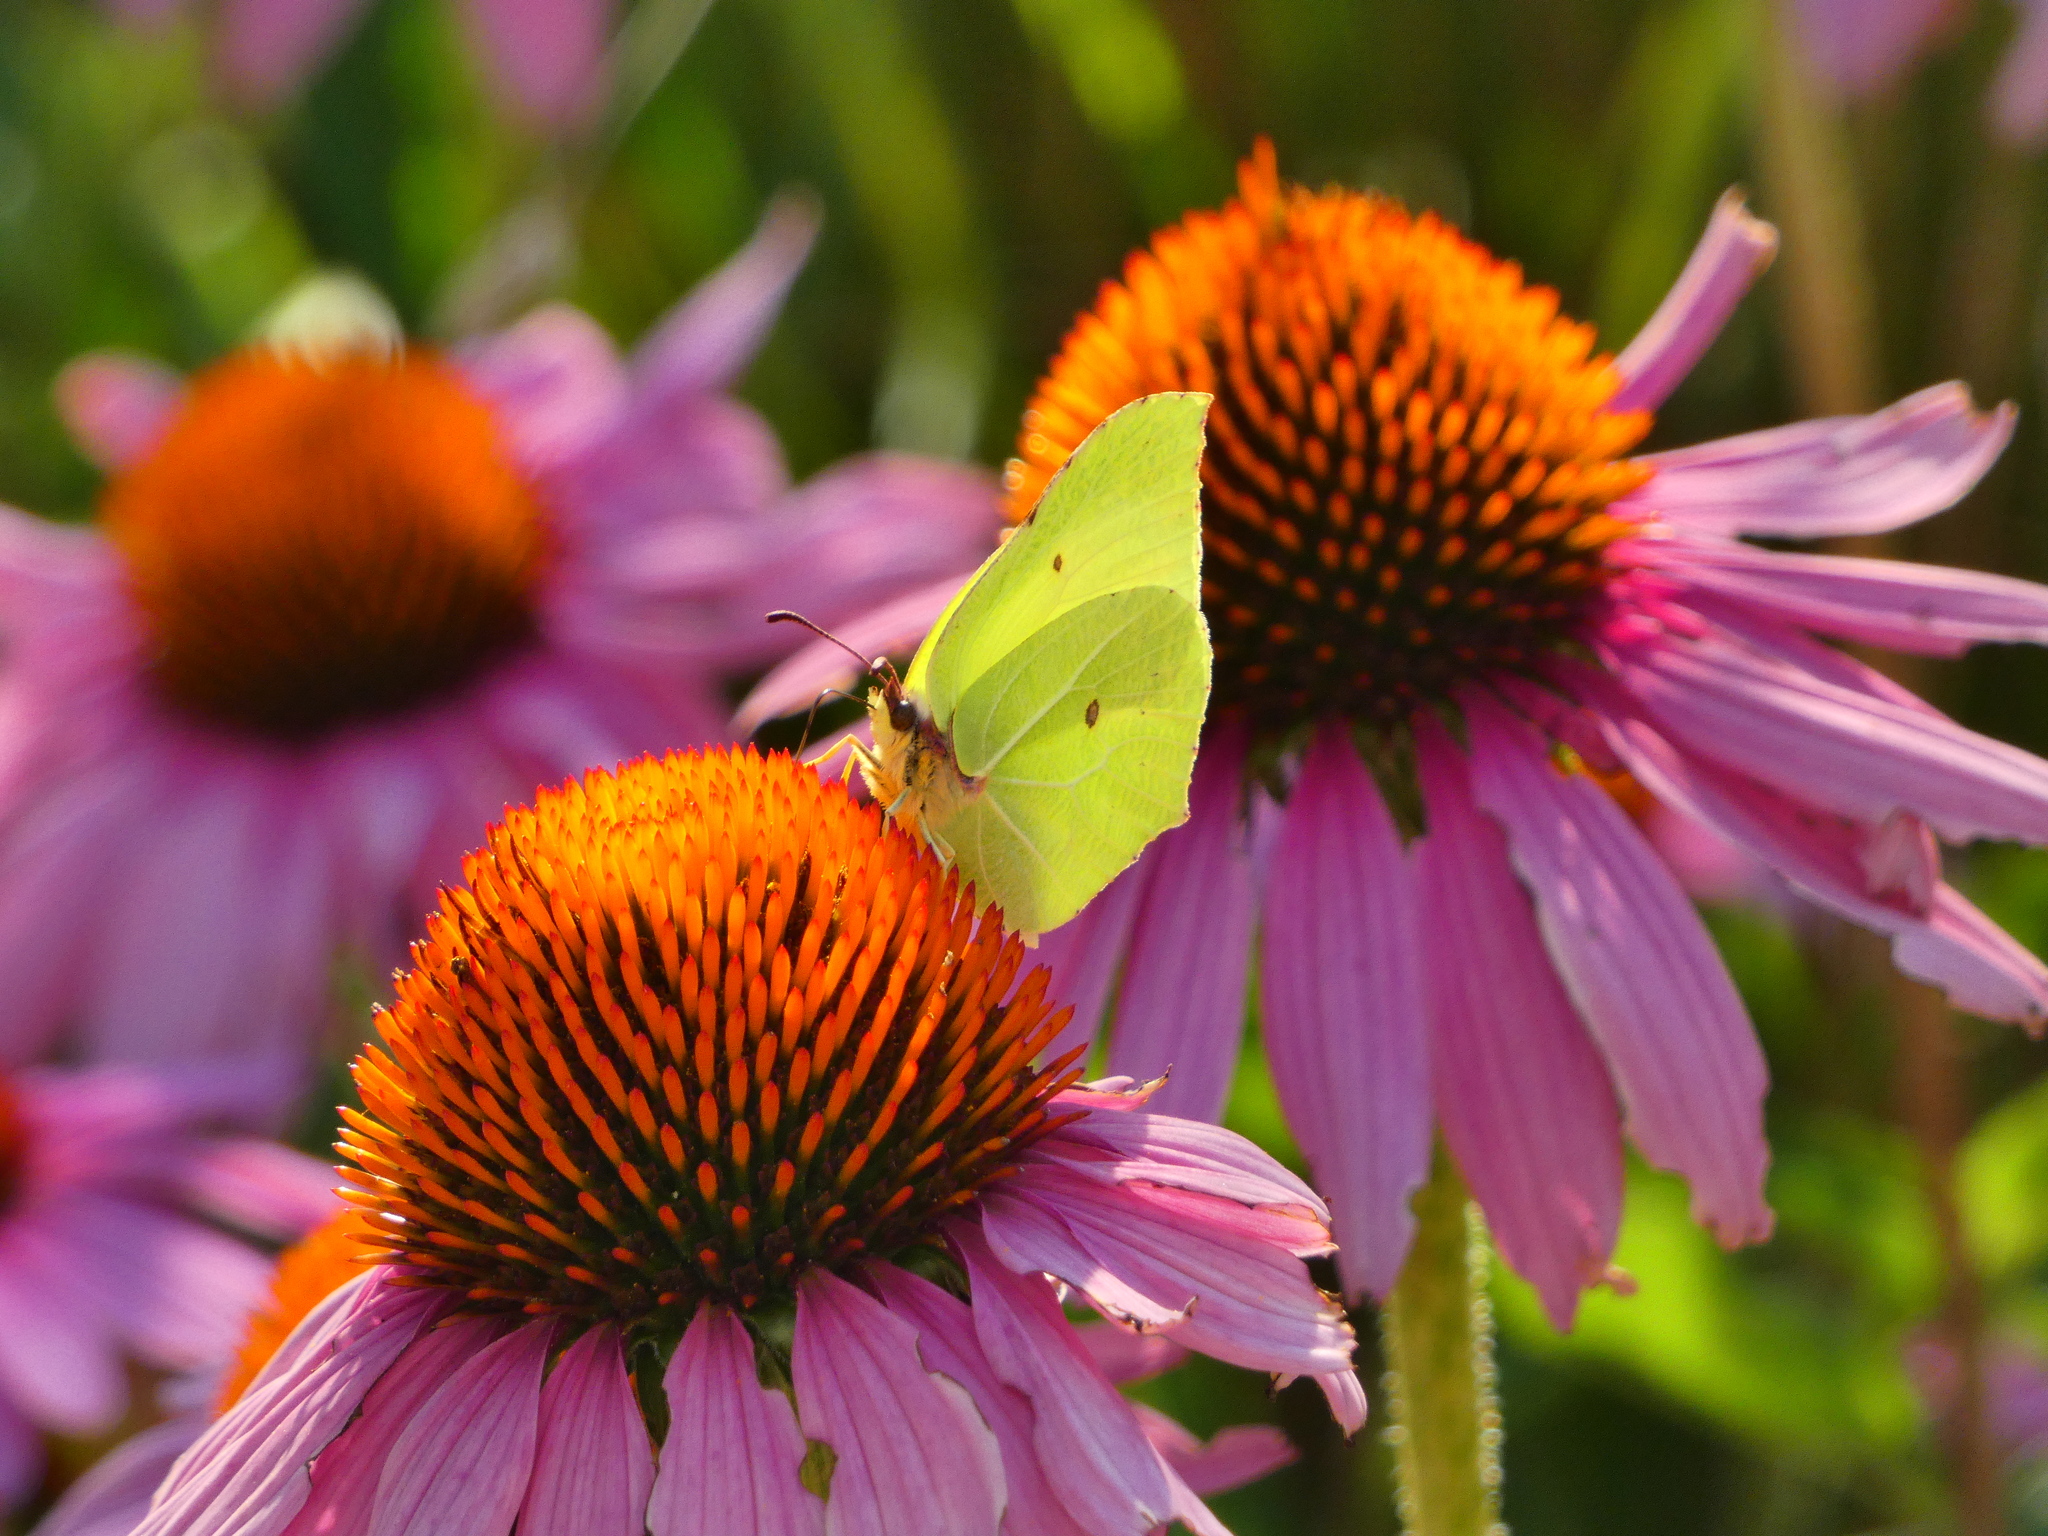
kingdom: Animalia
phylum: Arthropoda
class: Insecta
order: Lepidoptera
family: Pieridae
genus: Gonepteryx
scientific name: Gonepteryx rhamni
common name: Brimstone
